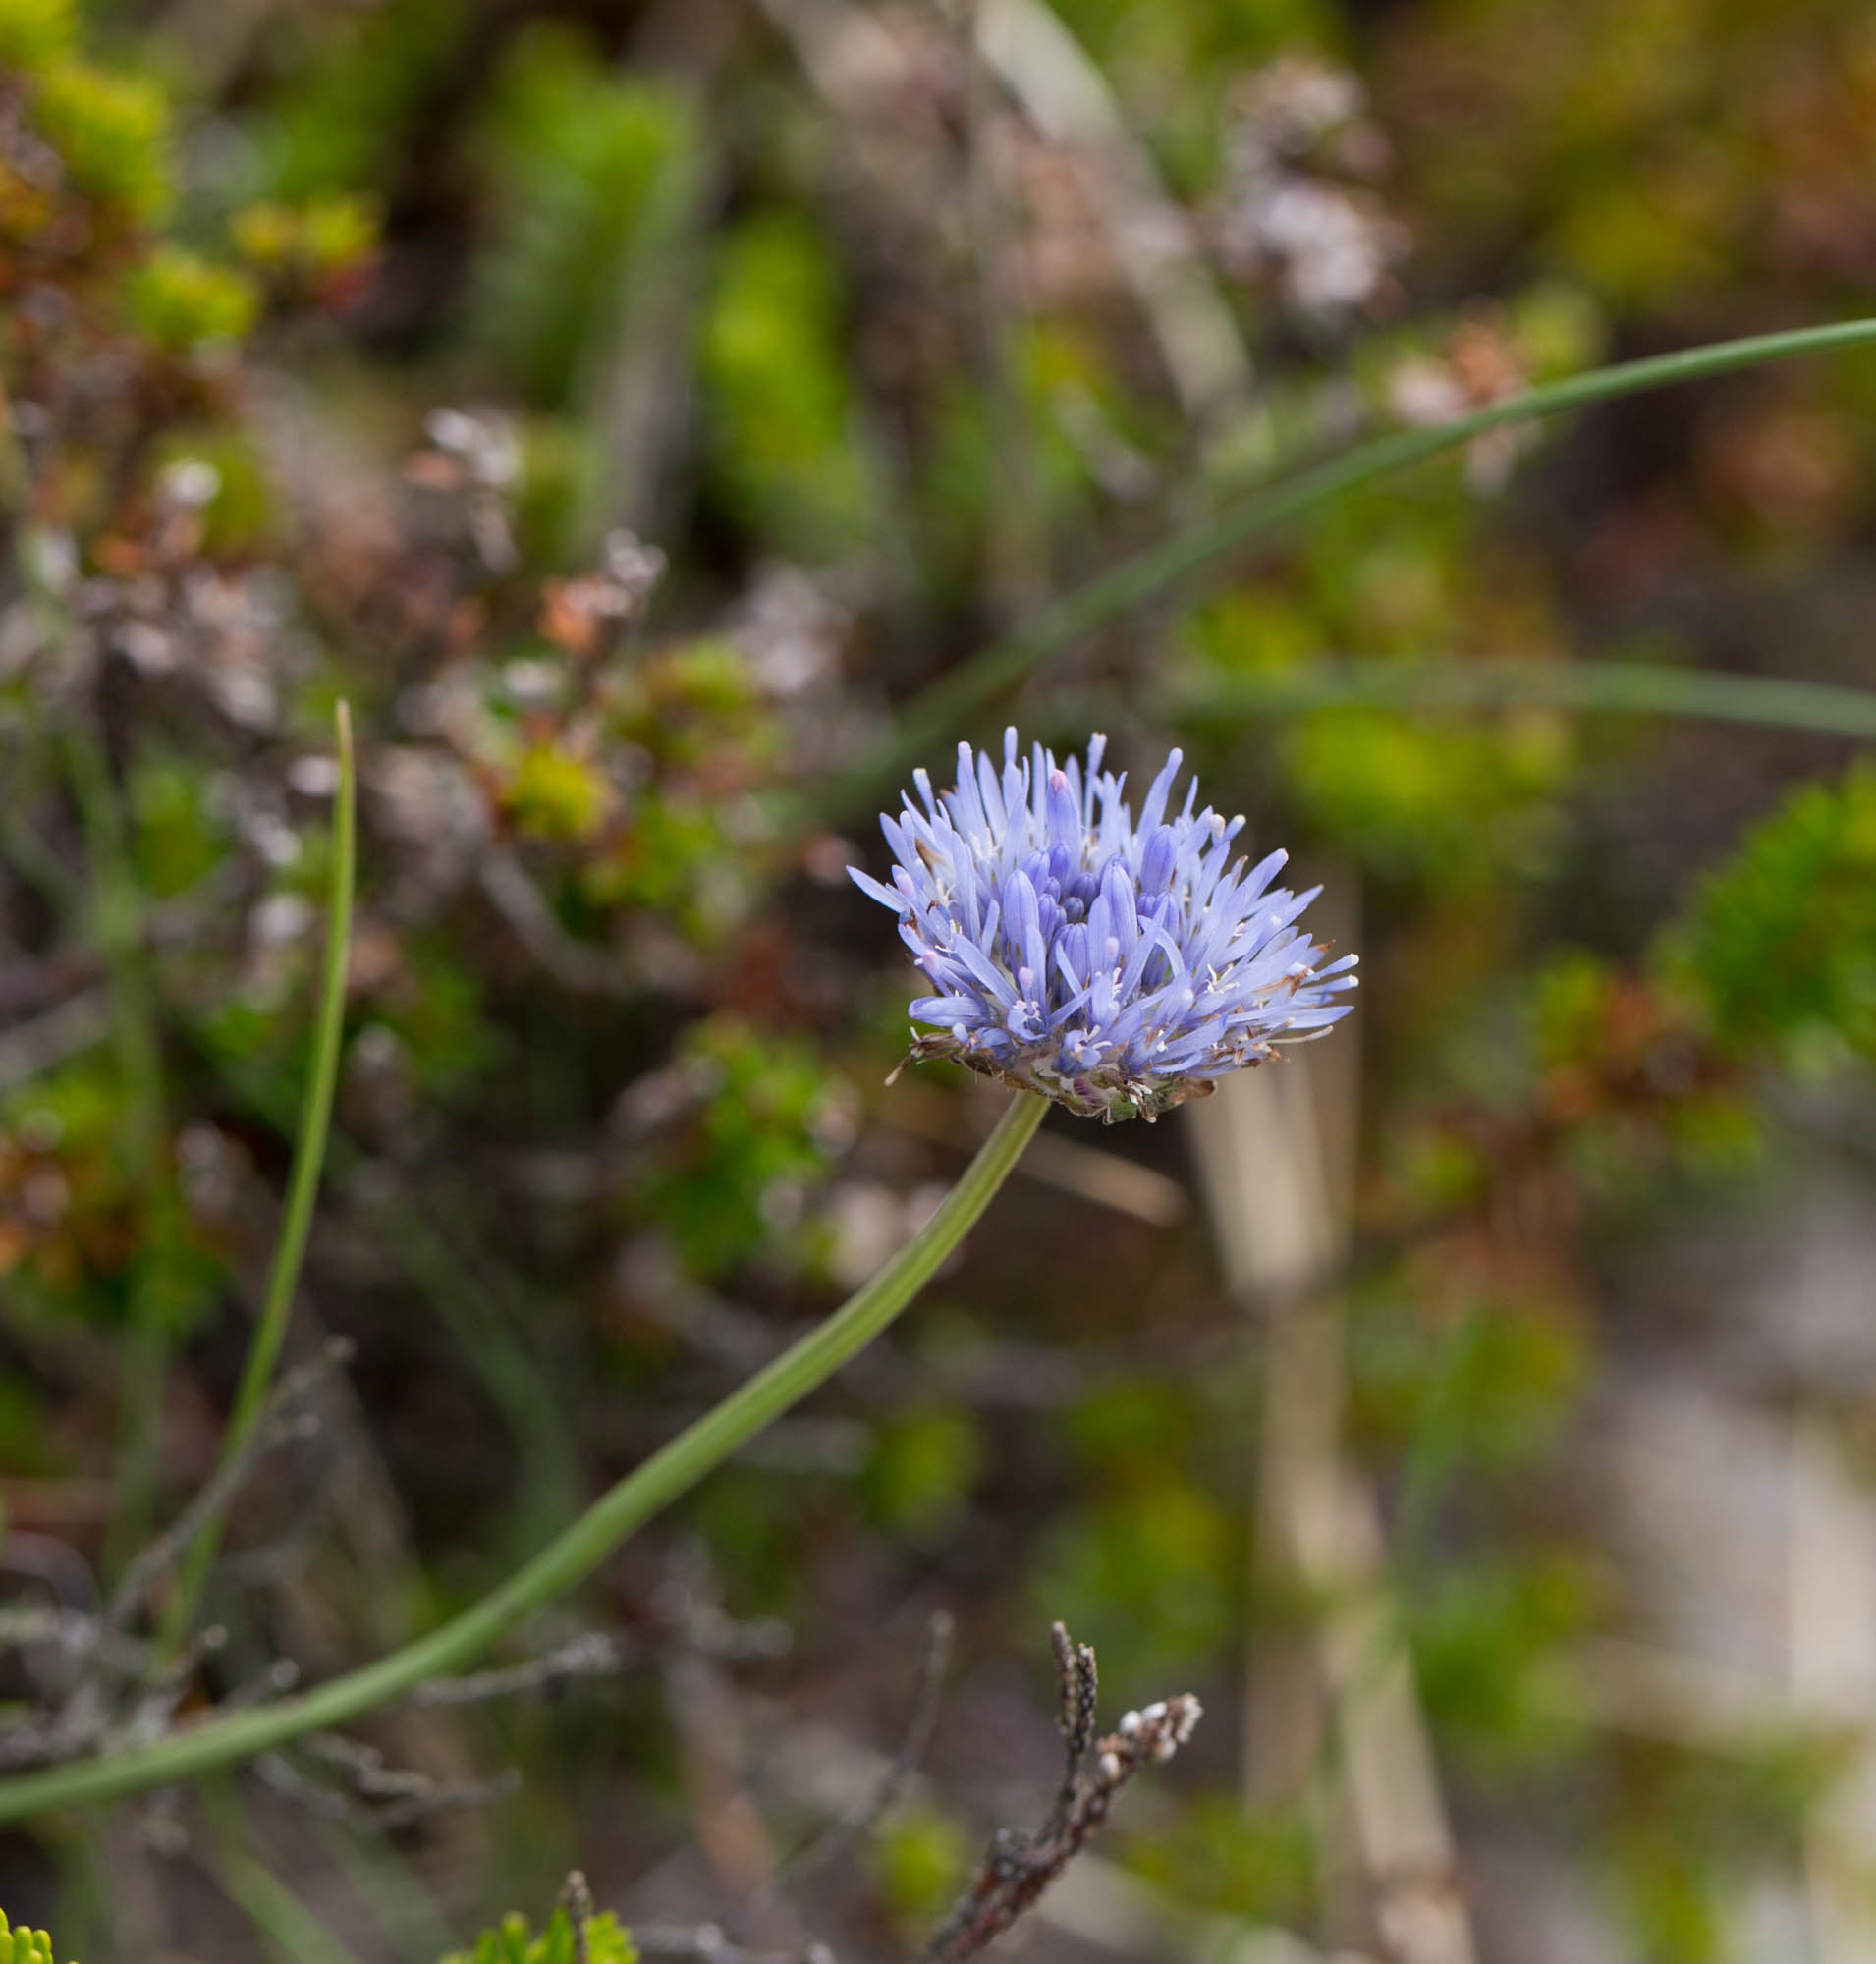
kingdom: Plantae
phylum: Tracheophyta
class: Magnoliopsida
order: Asterales
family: Campanulaceae
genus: Jasione
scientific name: Jasione montana
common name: Sheep's-bit
